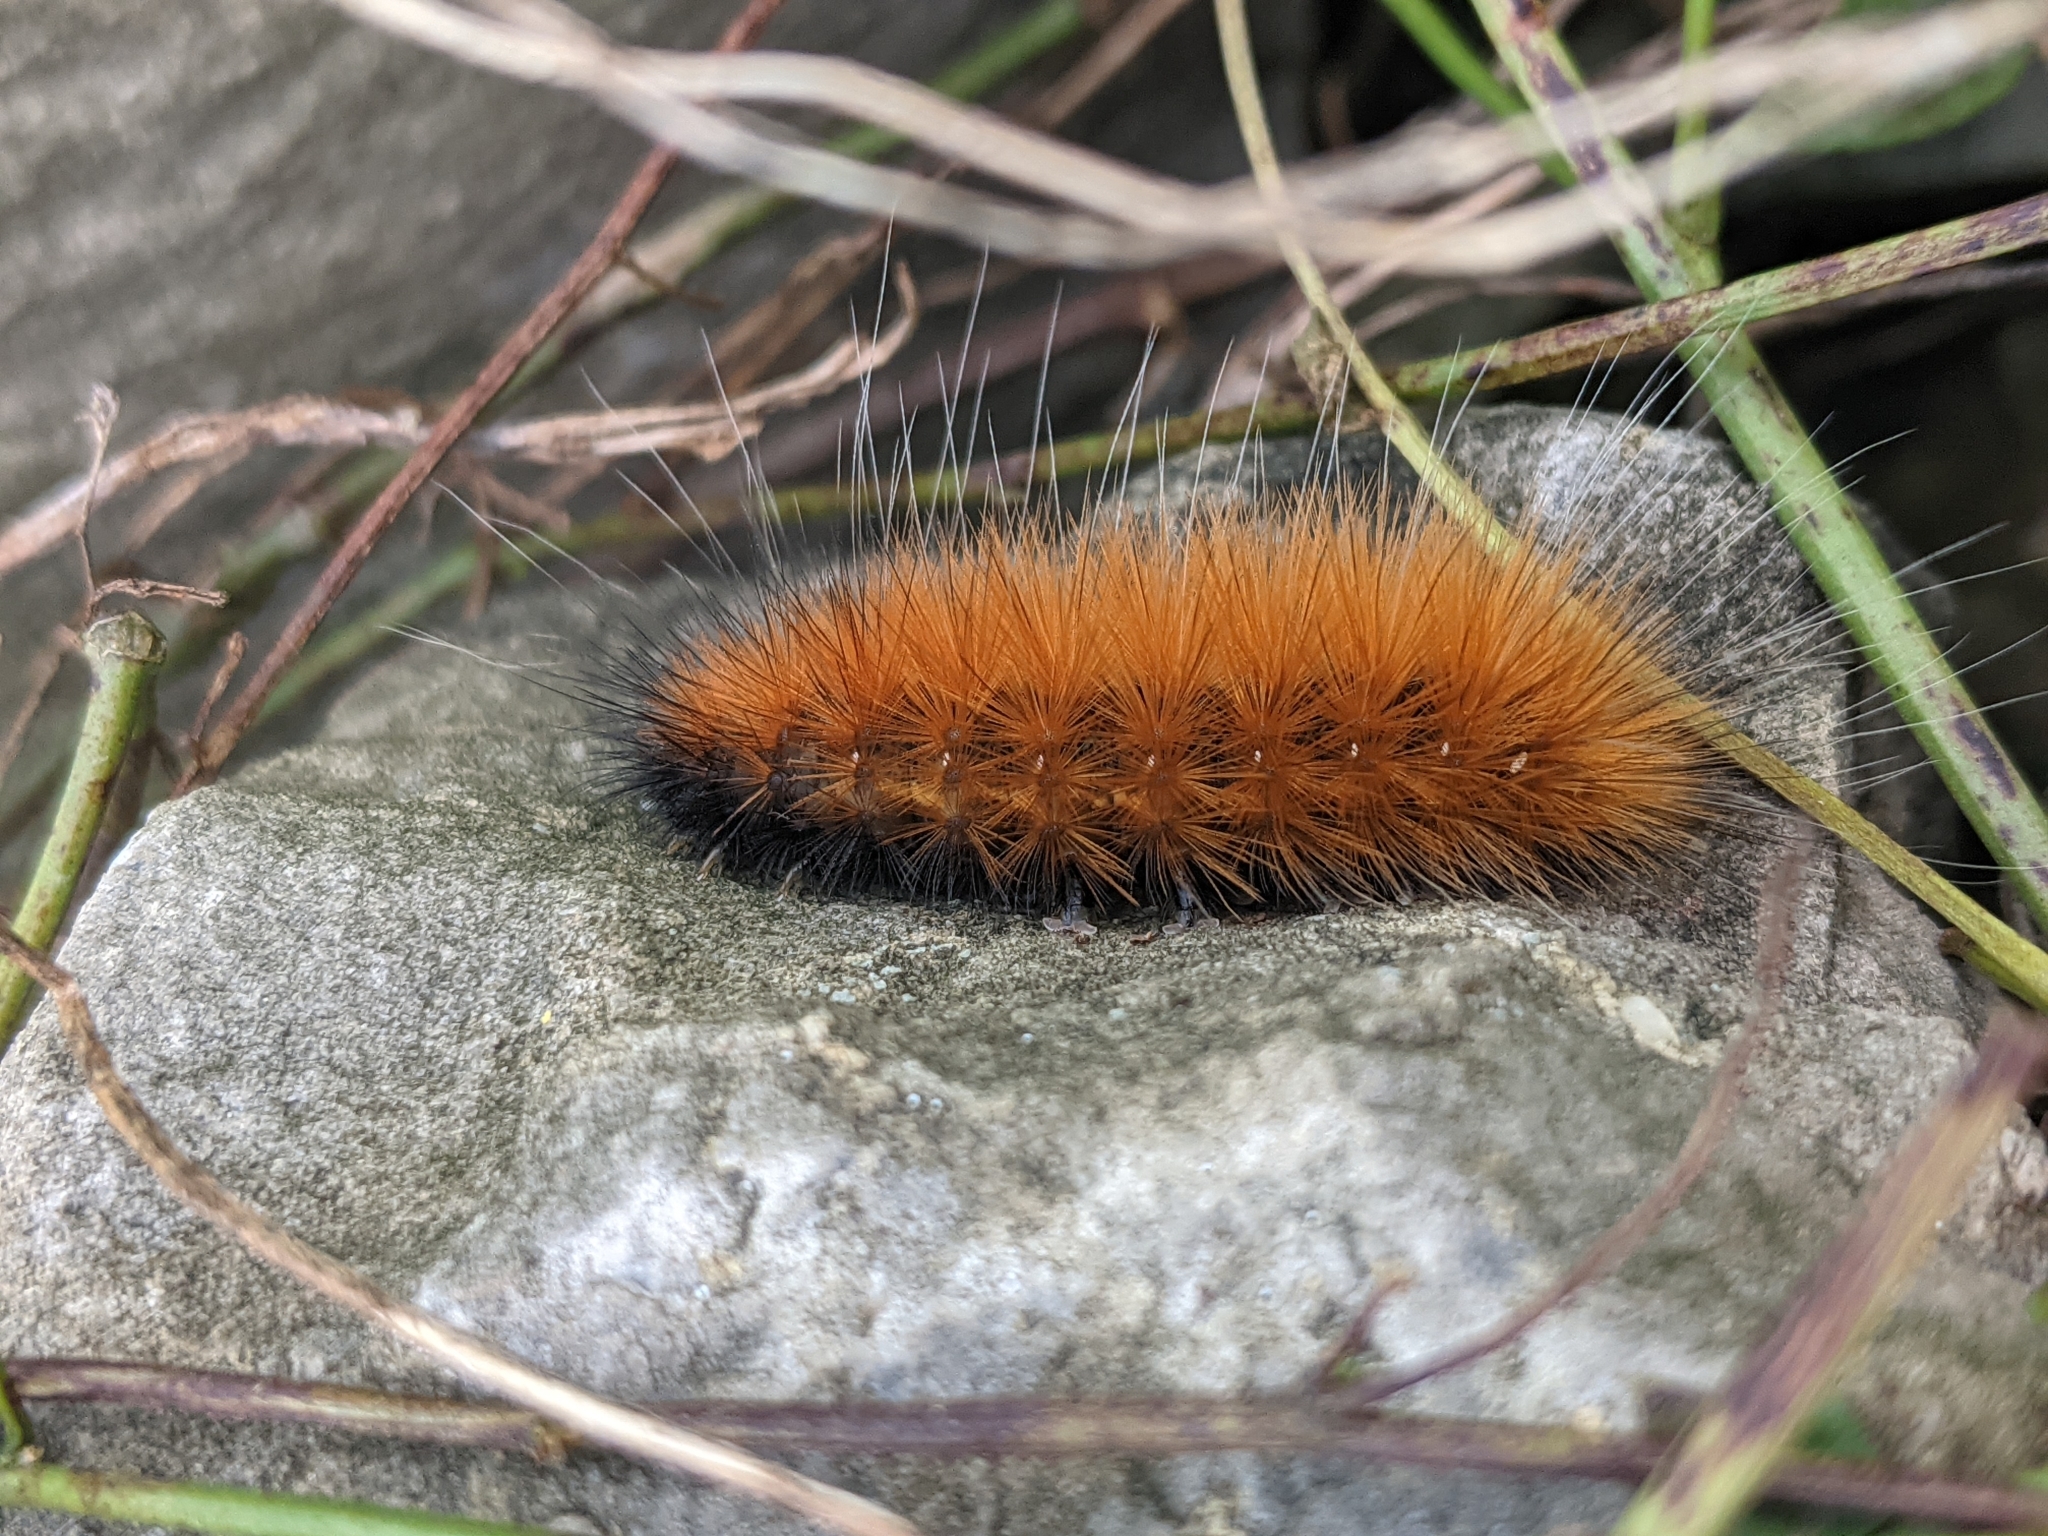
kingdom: Animalia
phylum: Arthropoda
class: Insecta
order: Lepidoptera
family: Erebidae
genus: Spilosoma
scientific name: Spilosoma virginica
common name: Virginia tiger moth
